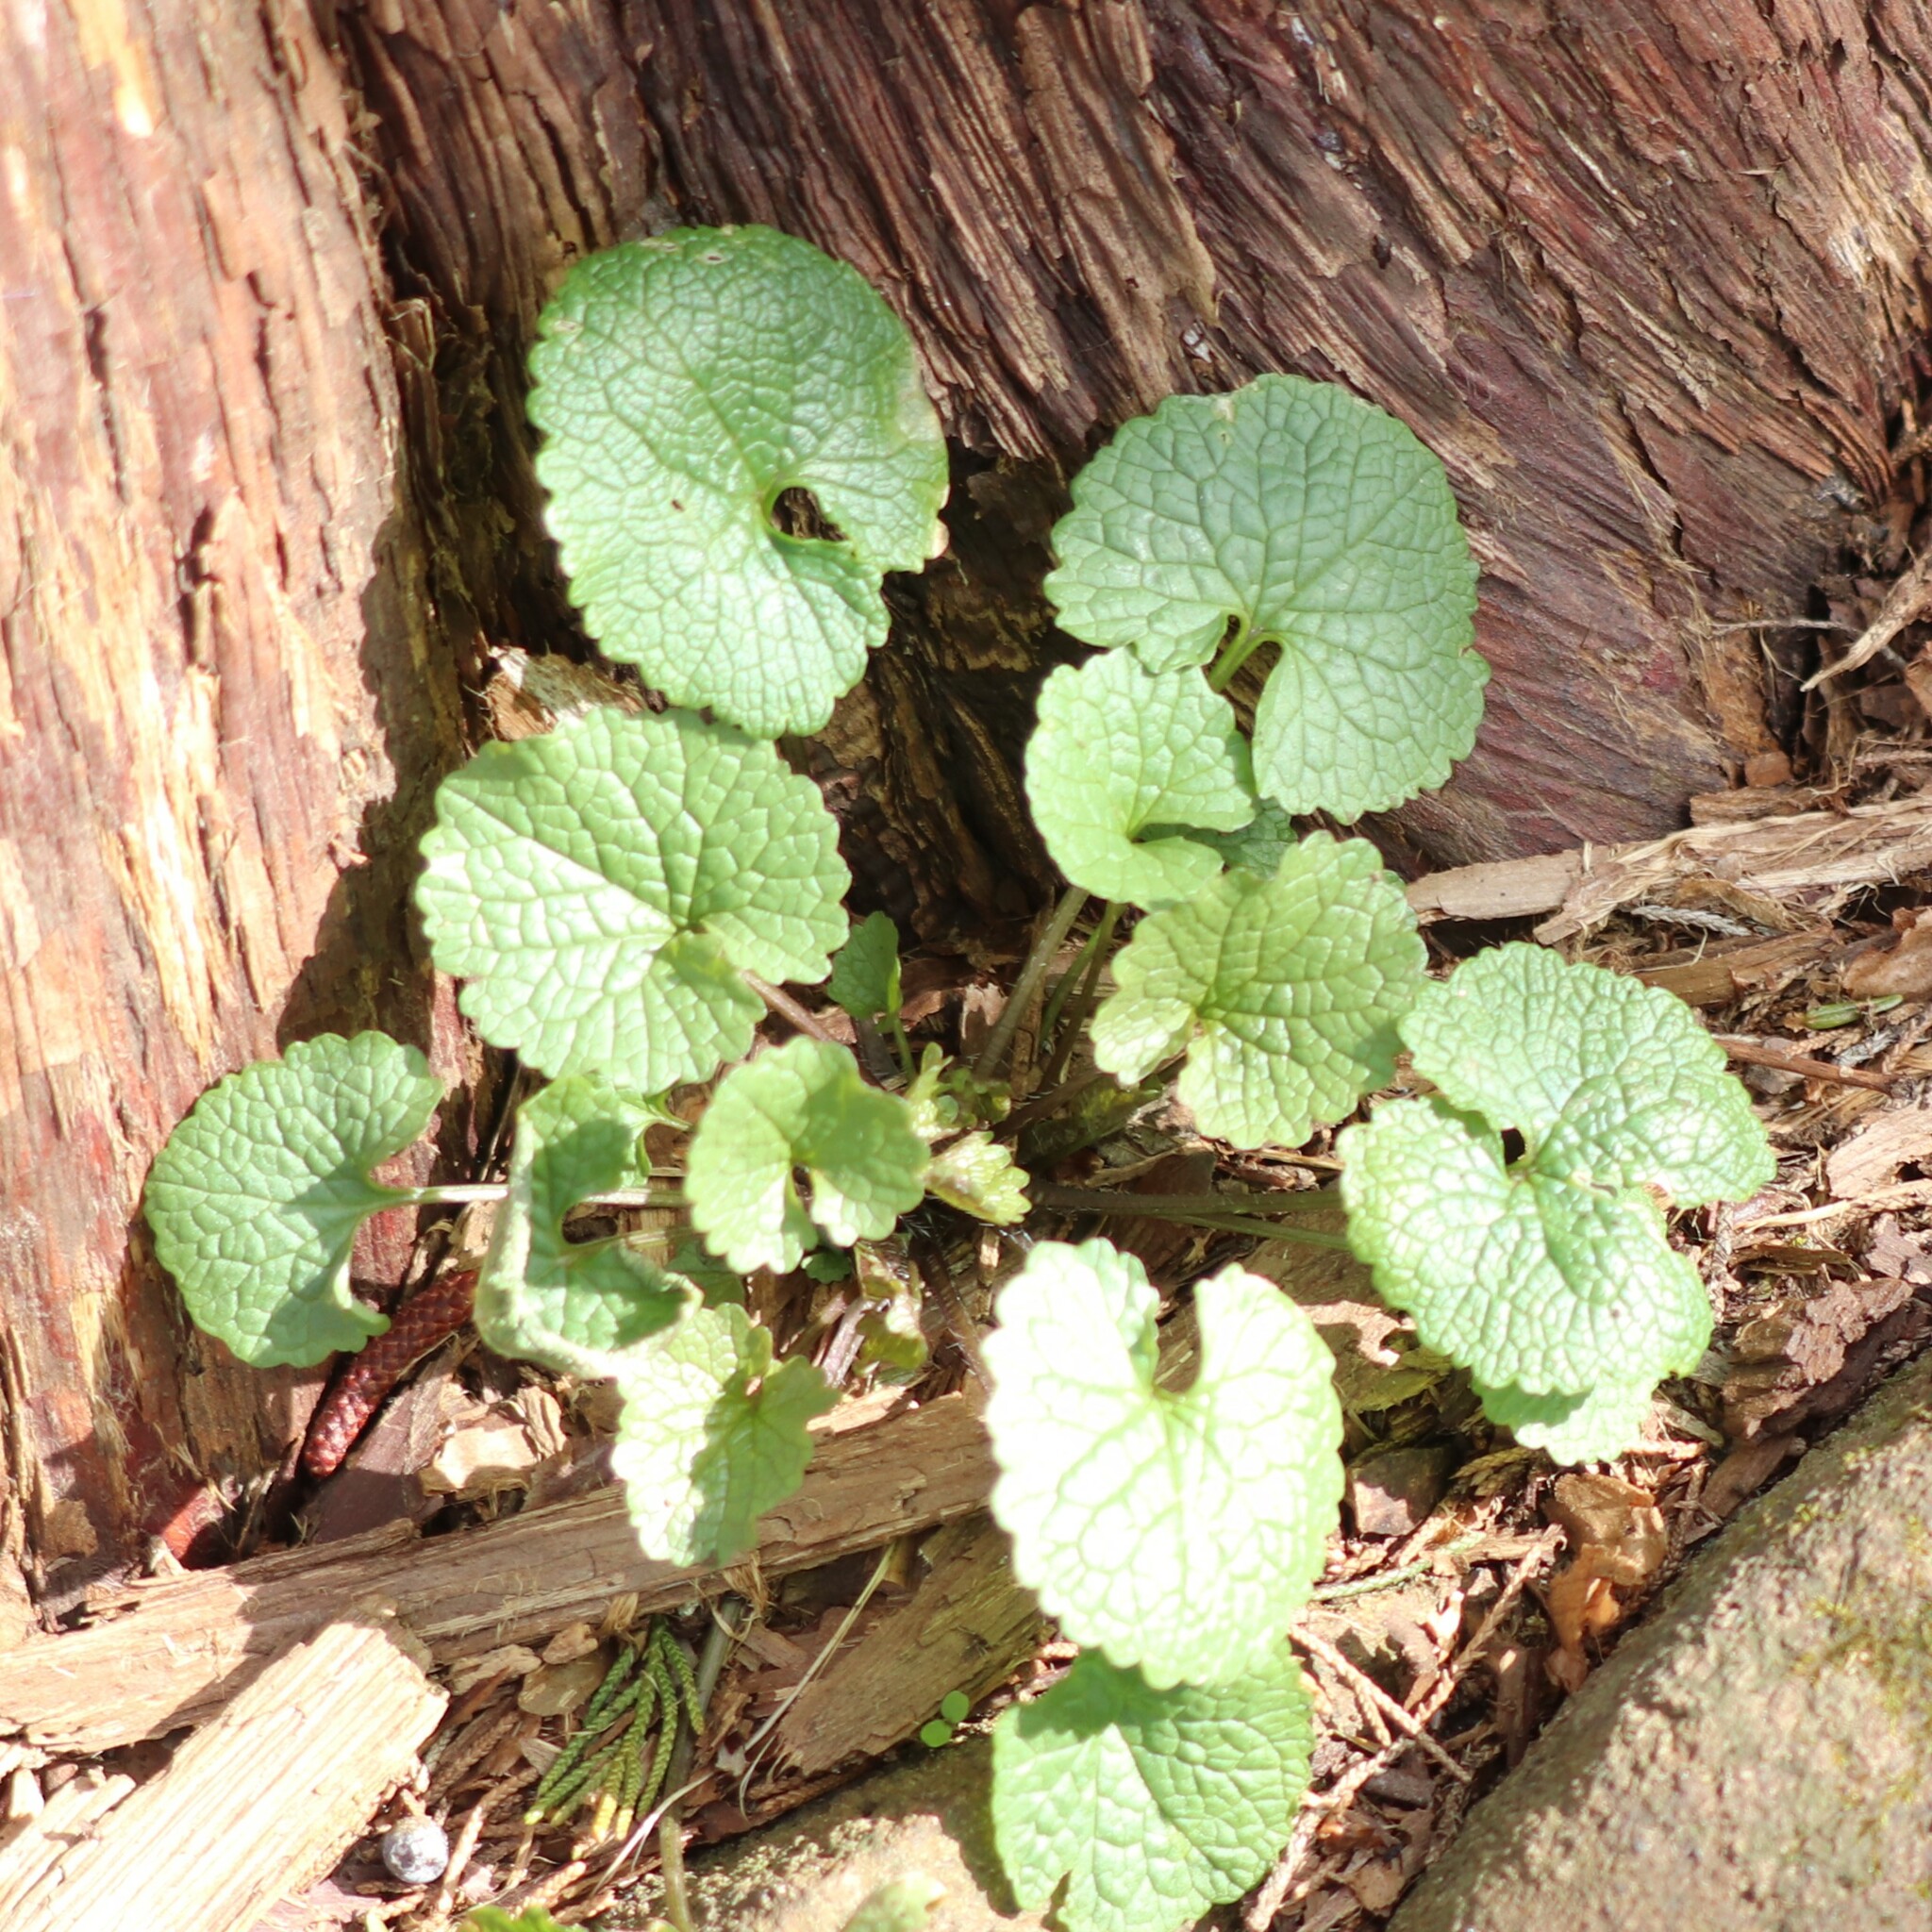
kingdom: Plantae
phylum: Tracheophyta
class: Magnoliopsida
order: Brassicales
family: Brassicaceae
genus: Alliaria
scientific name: Alliaria petiolata
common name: Garlic mustard
